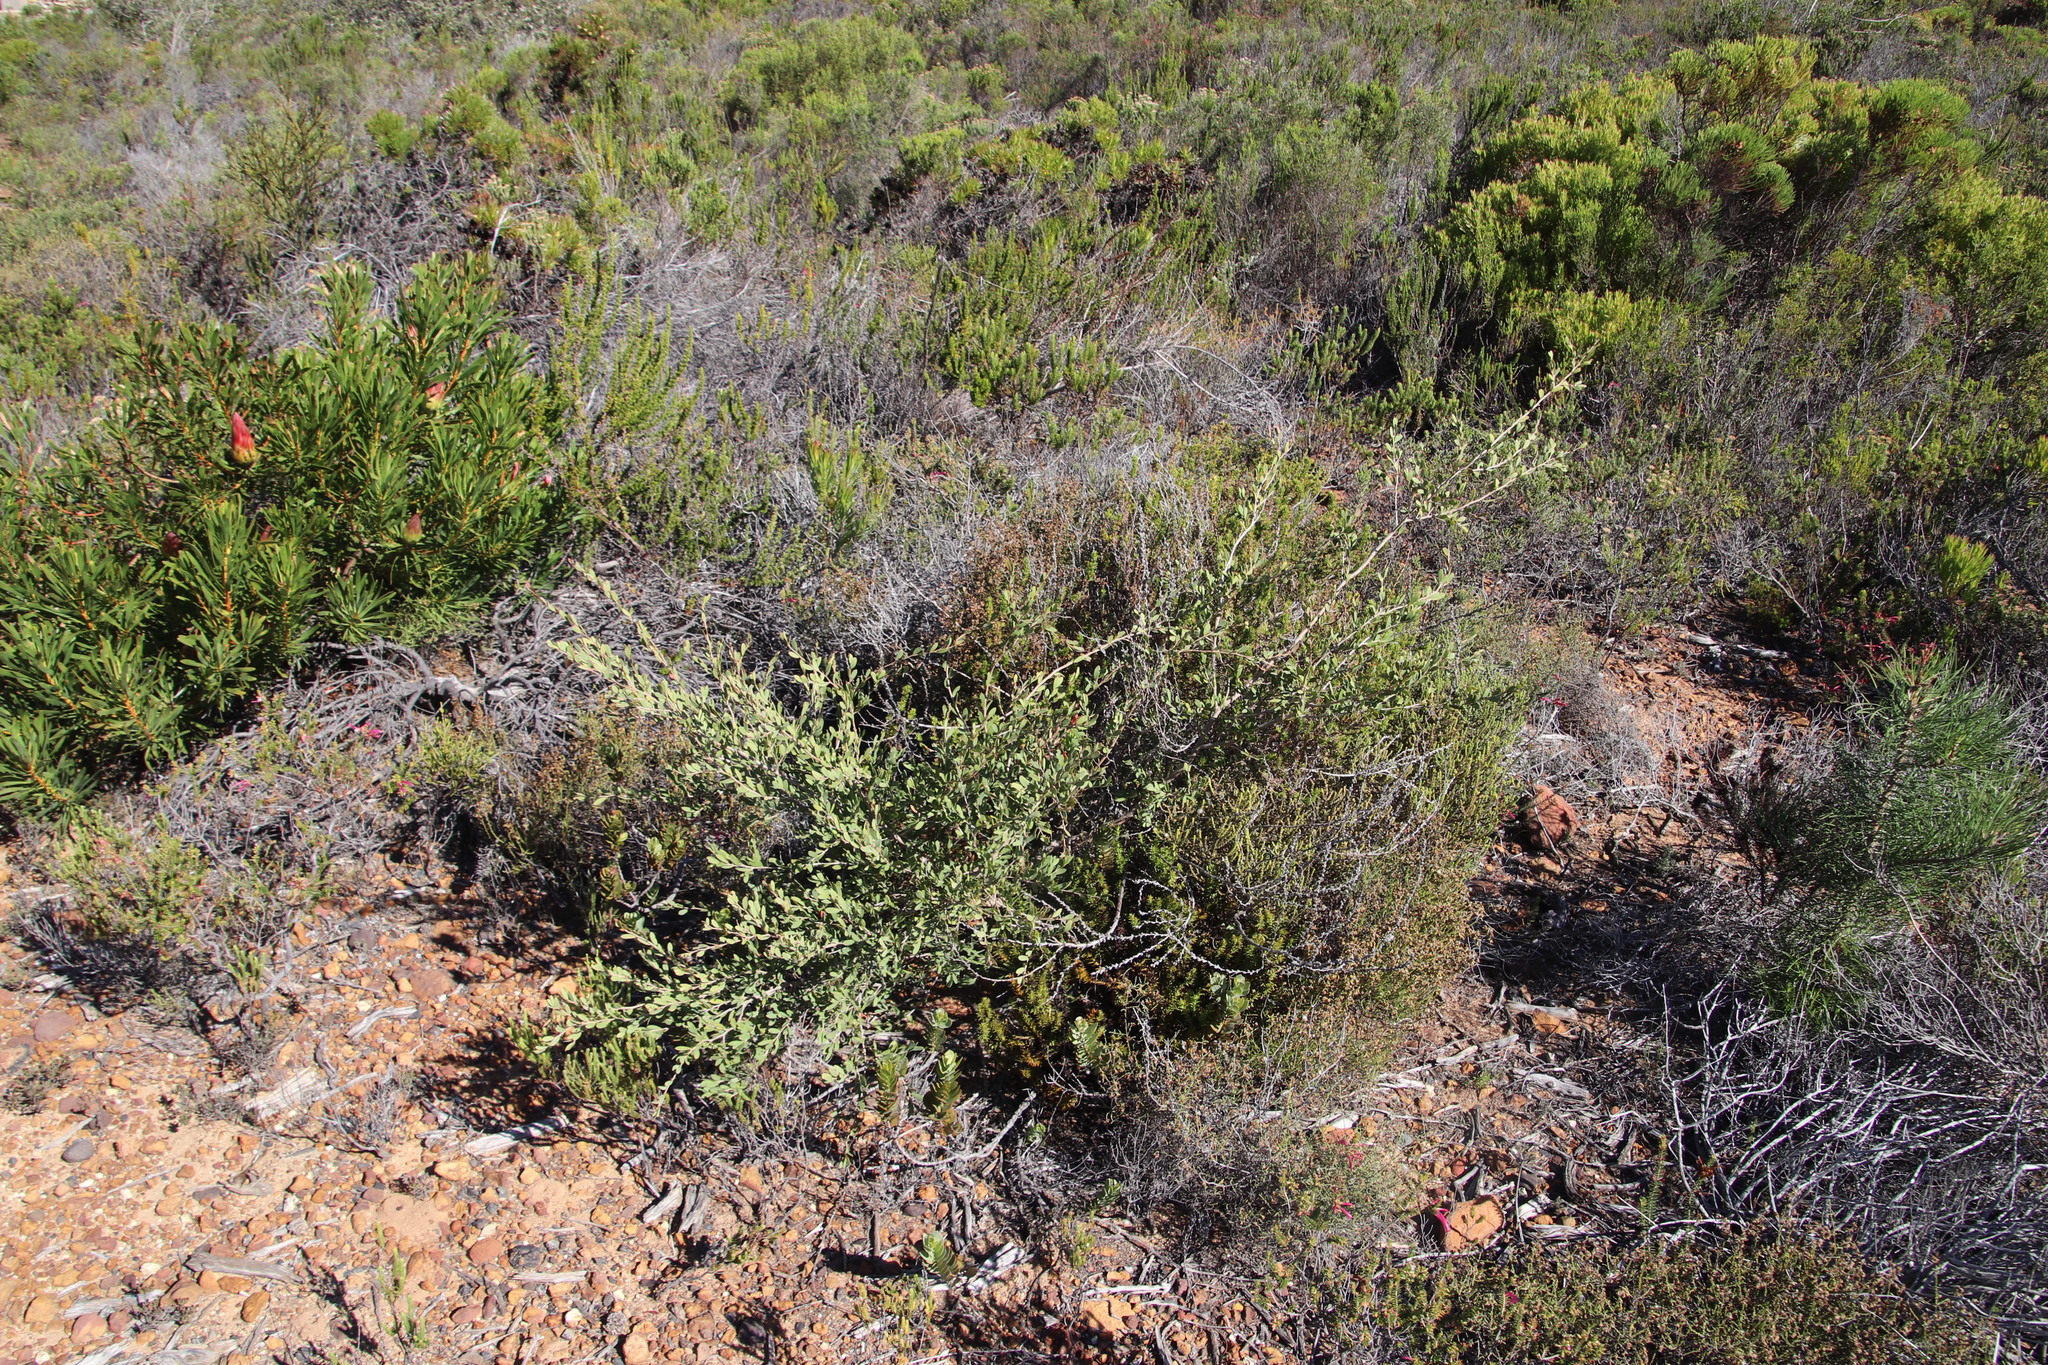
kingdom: Plantae
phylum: Tracheophyta
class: Magnoliopsida
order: Myrtales
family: Myrtaceae
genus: Leptospermum
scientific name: Leptospermum laevigatum
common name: Australian teatree
